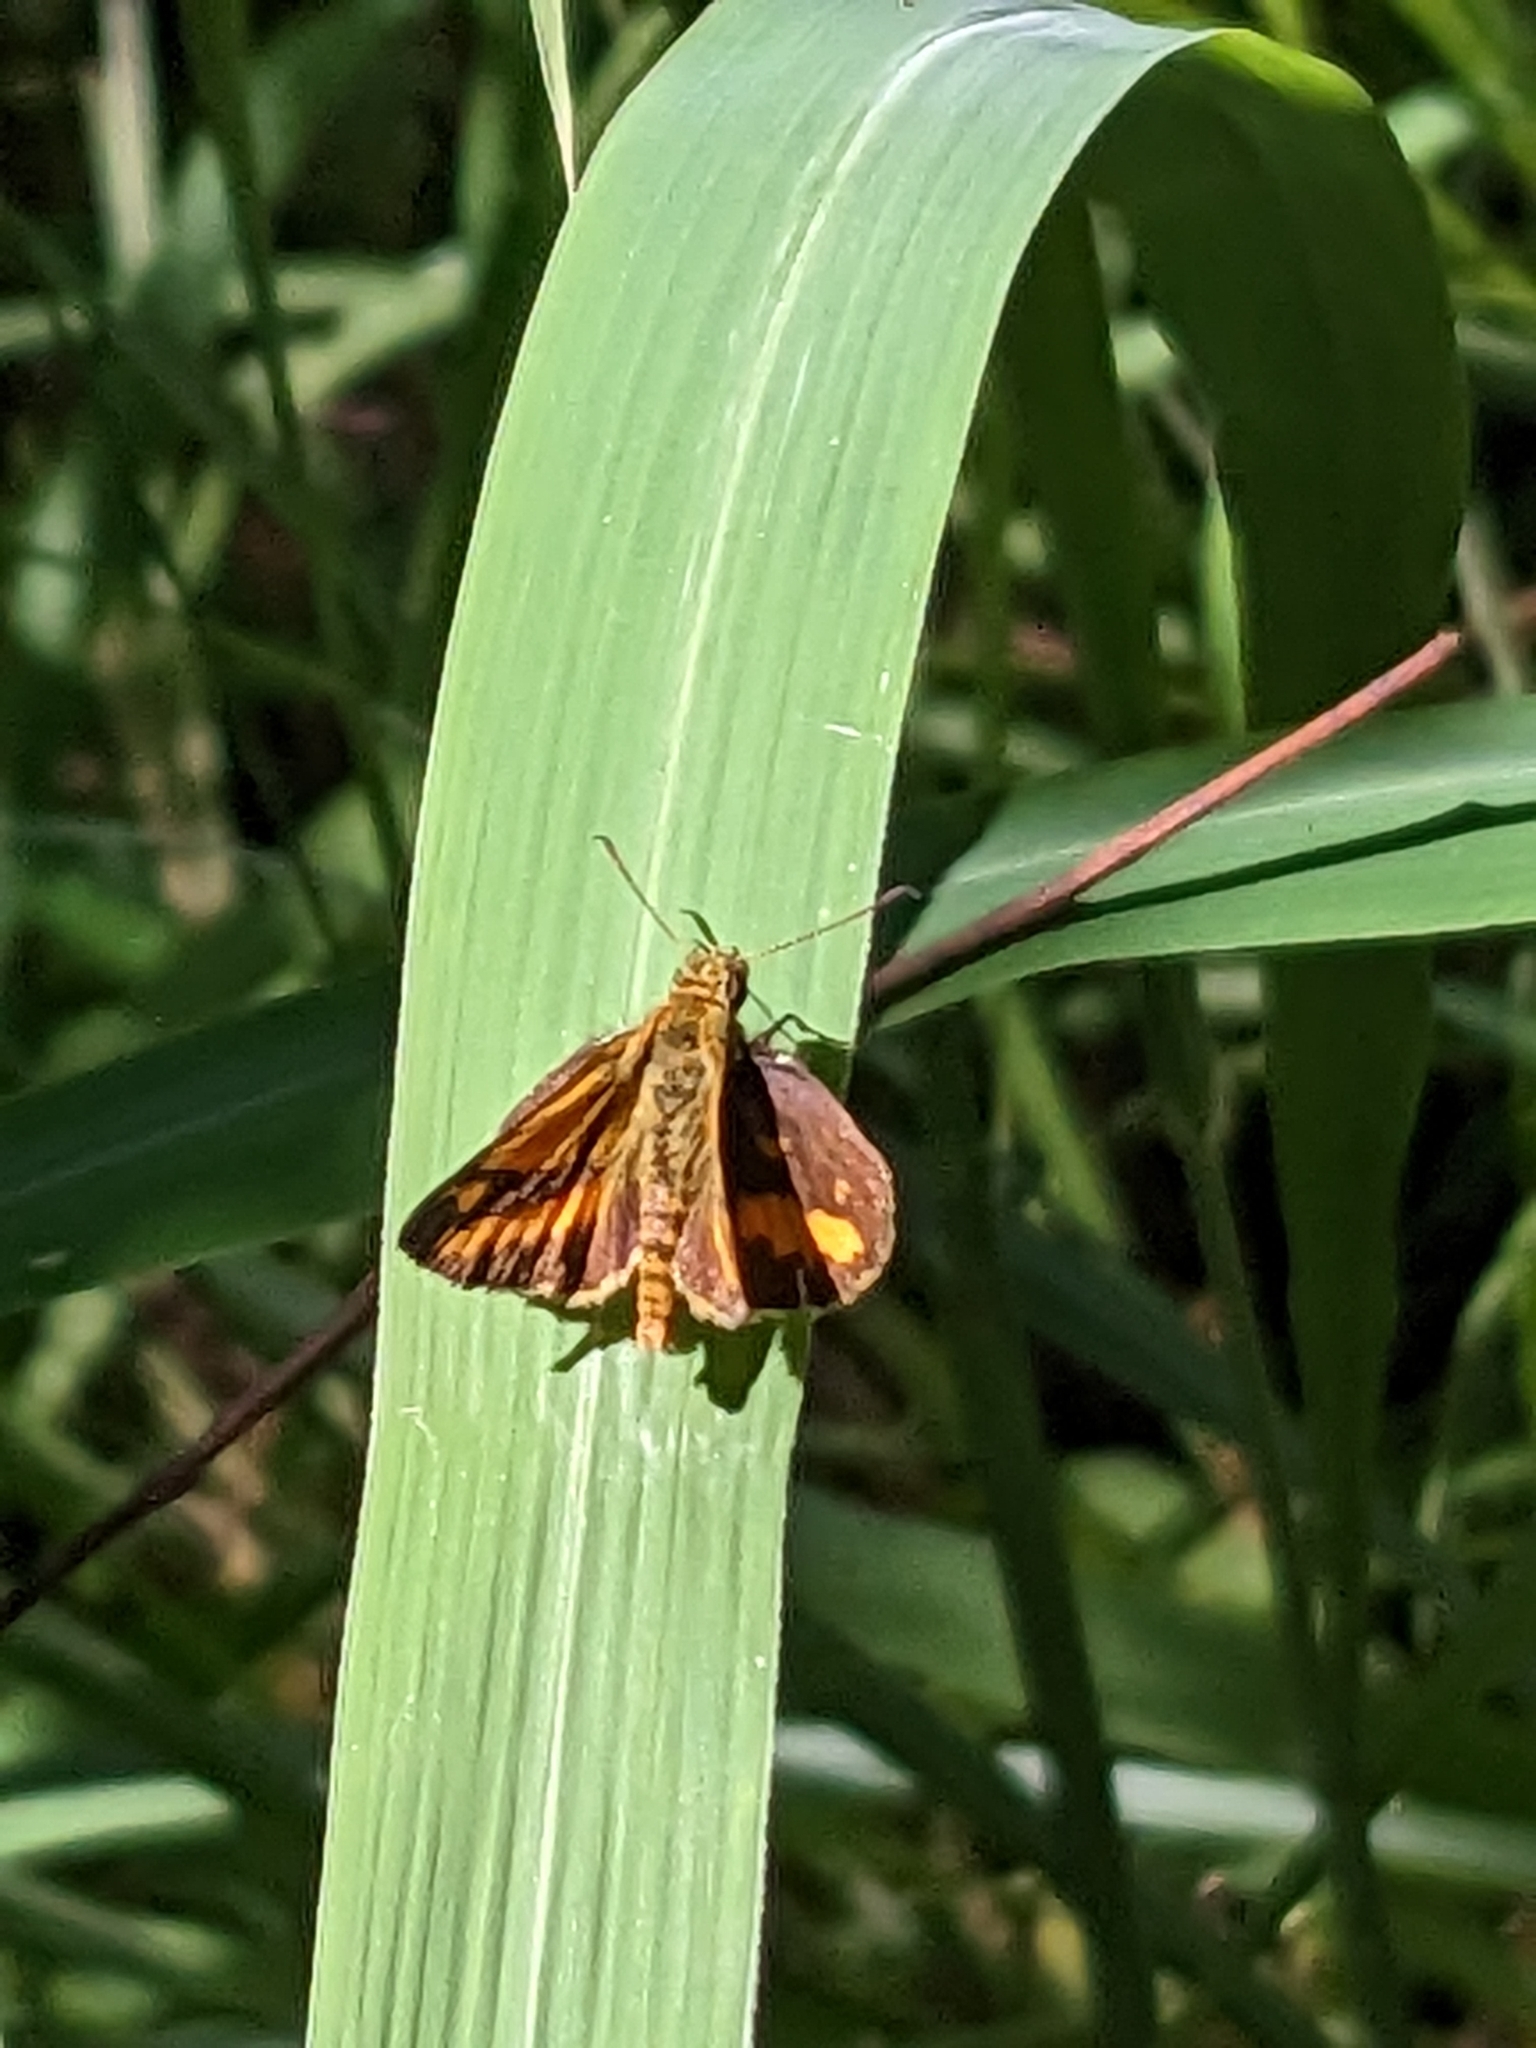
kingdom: Animalia
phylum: Arthropoda
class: Insecta
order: Lepidoptera
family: Hesperiidae
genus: Suniana
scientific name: Suniana sunias
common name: Wide-brand grass-dart
